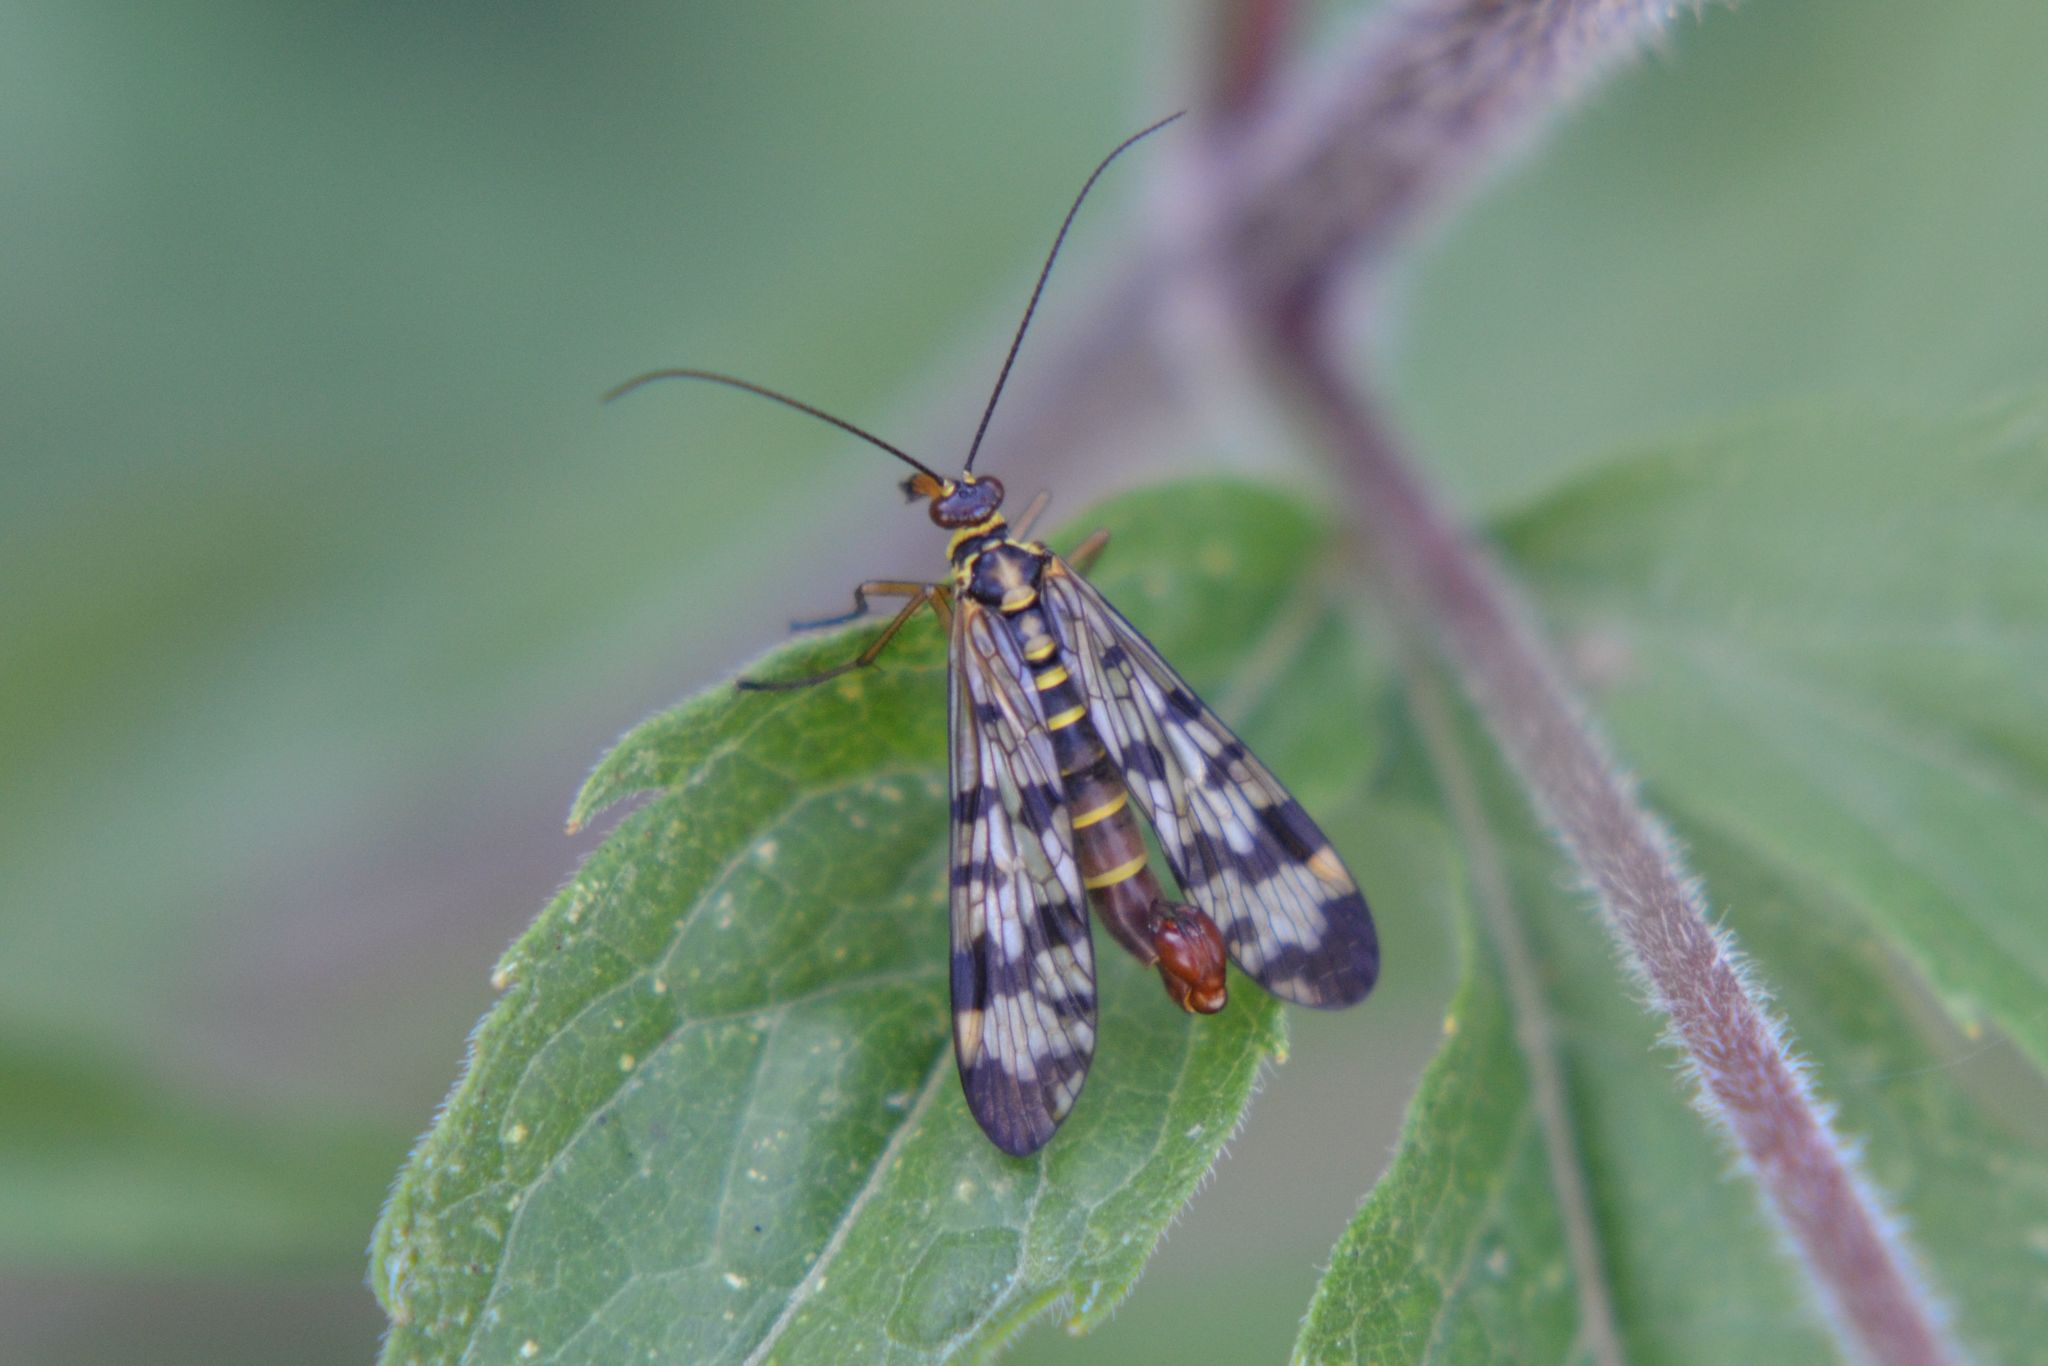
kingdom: Animalia
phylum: Arthropoda
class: Insecta
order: Mecoptera
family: Panorpidae
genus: Panorpa
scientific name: Panorpa communis
